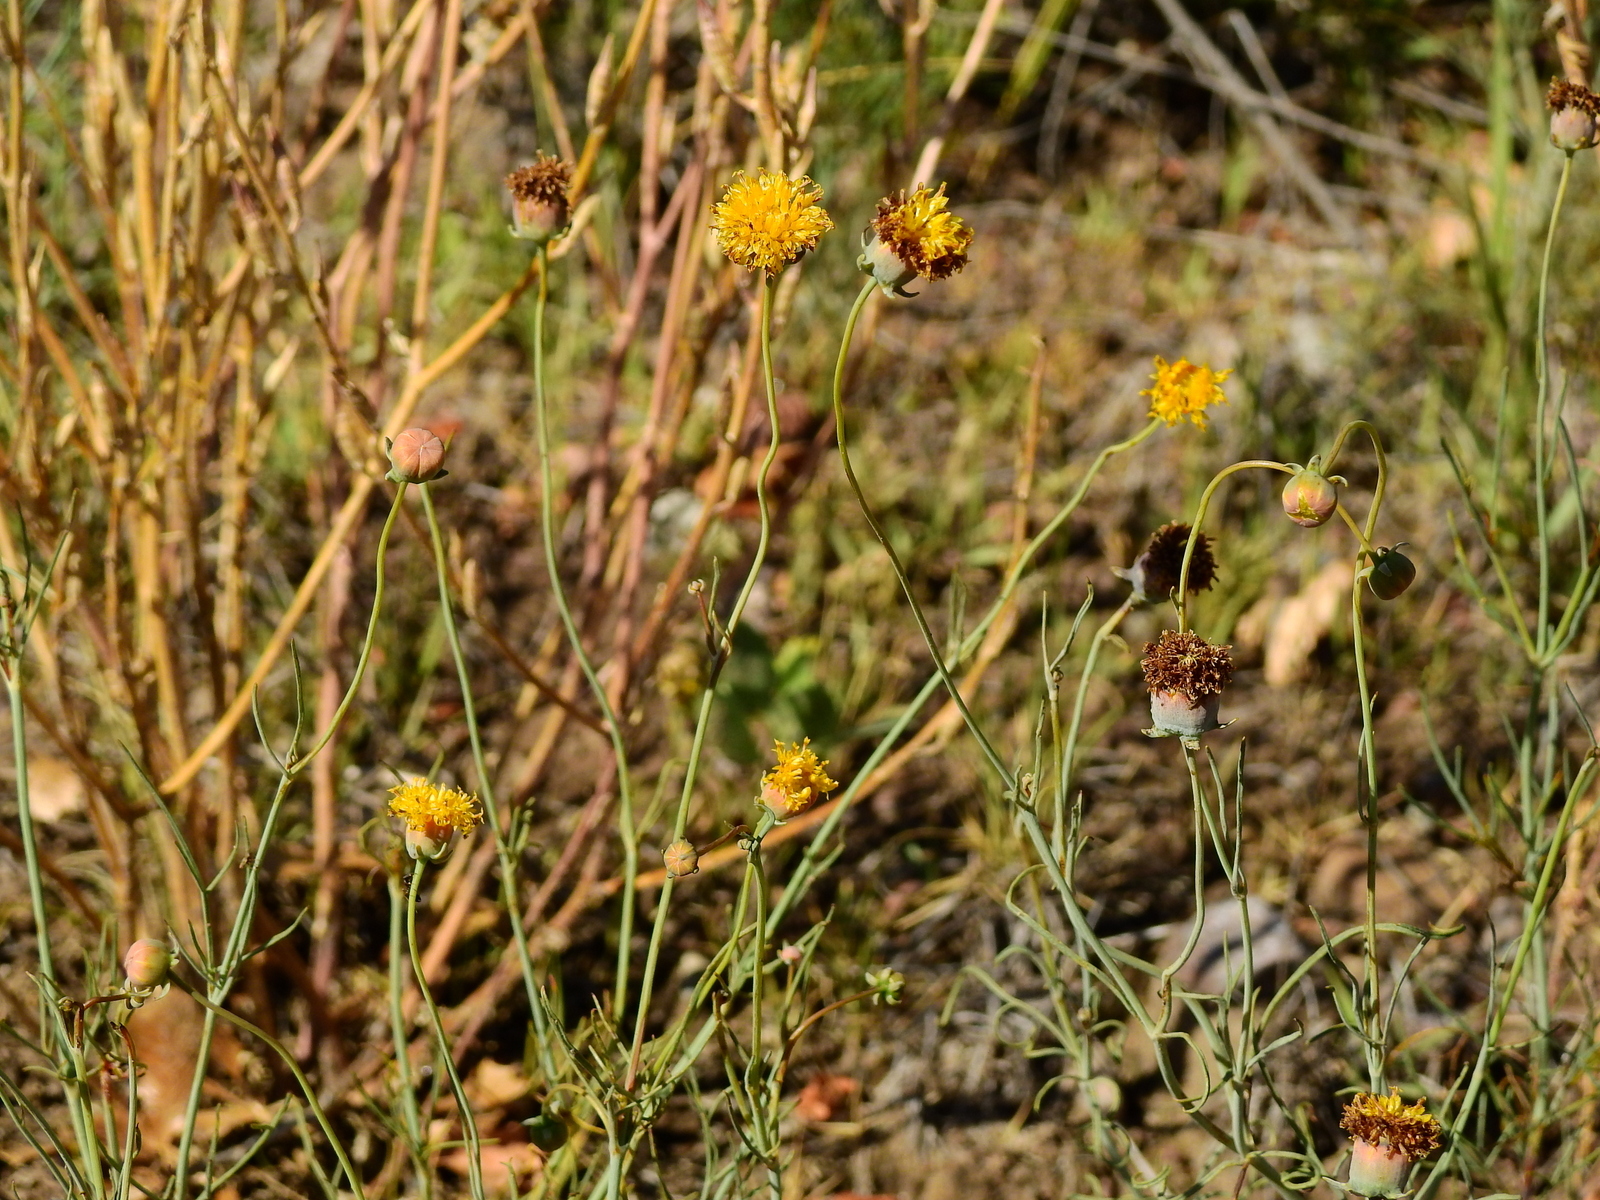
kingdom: Plantae
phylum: Tracheophyta
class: Magnoliopsida
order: Asterales
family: Asteraceae
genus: Thelesperma
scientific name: Thelesperma megapotamicum
